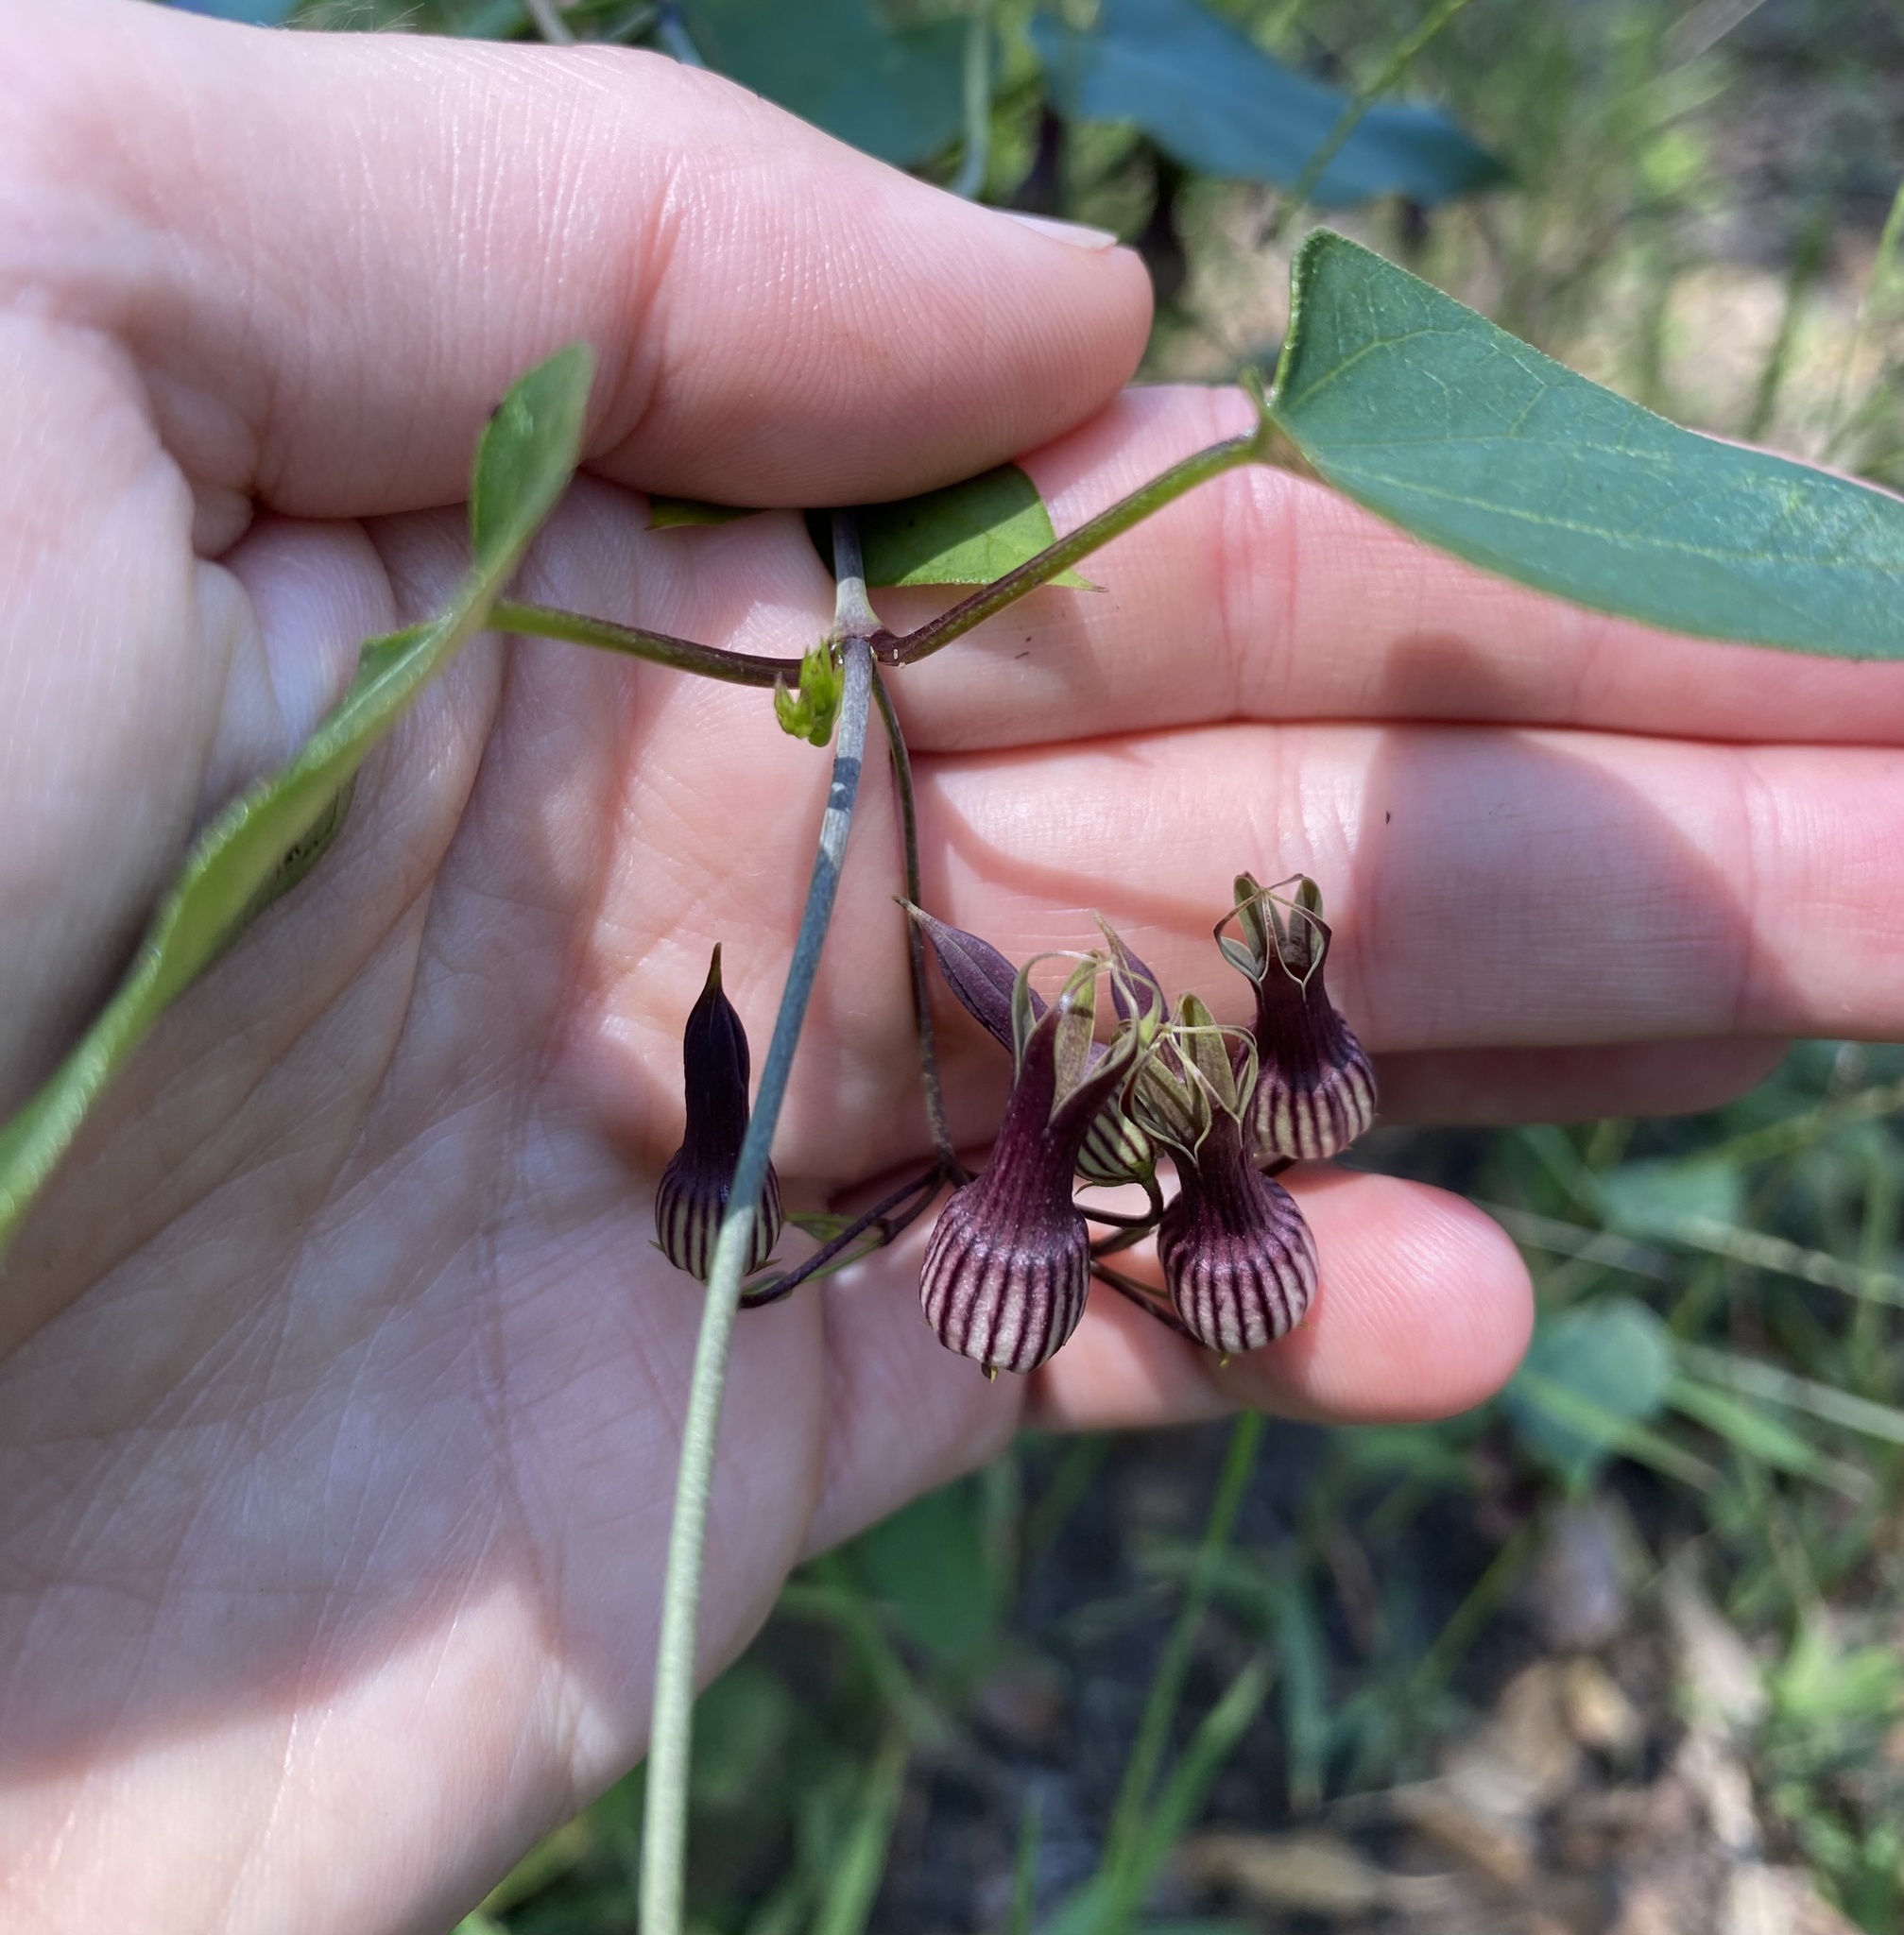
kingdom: Plantae
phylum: Tracheophyta
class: Magnoliopsida
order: Gentianales
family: Apocynaceae
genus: Riocreuxia
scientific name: Riocreuxia picta
